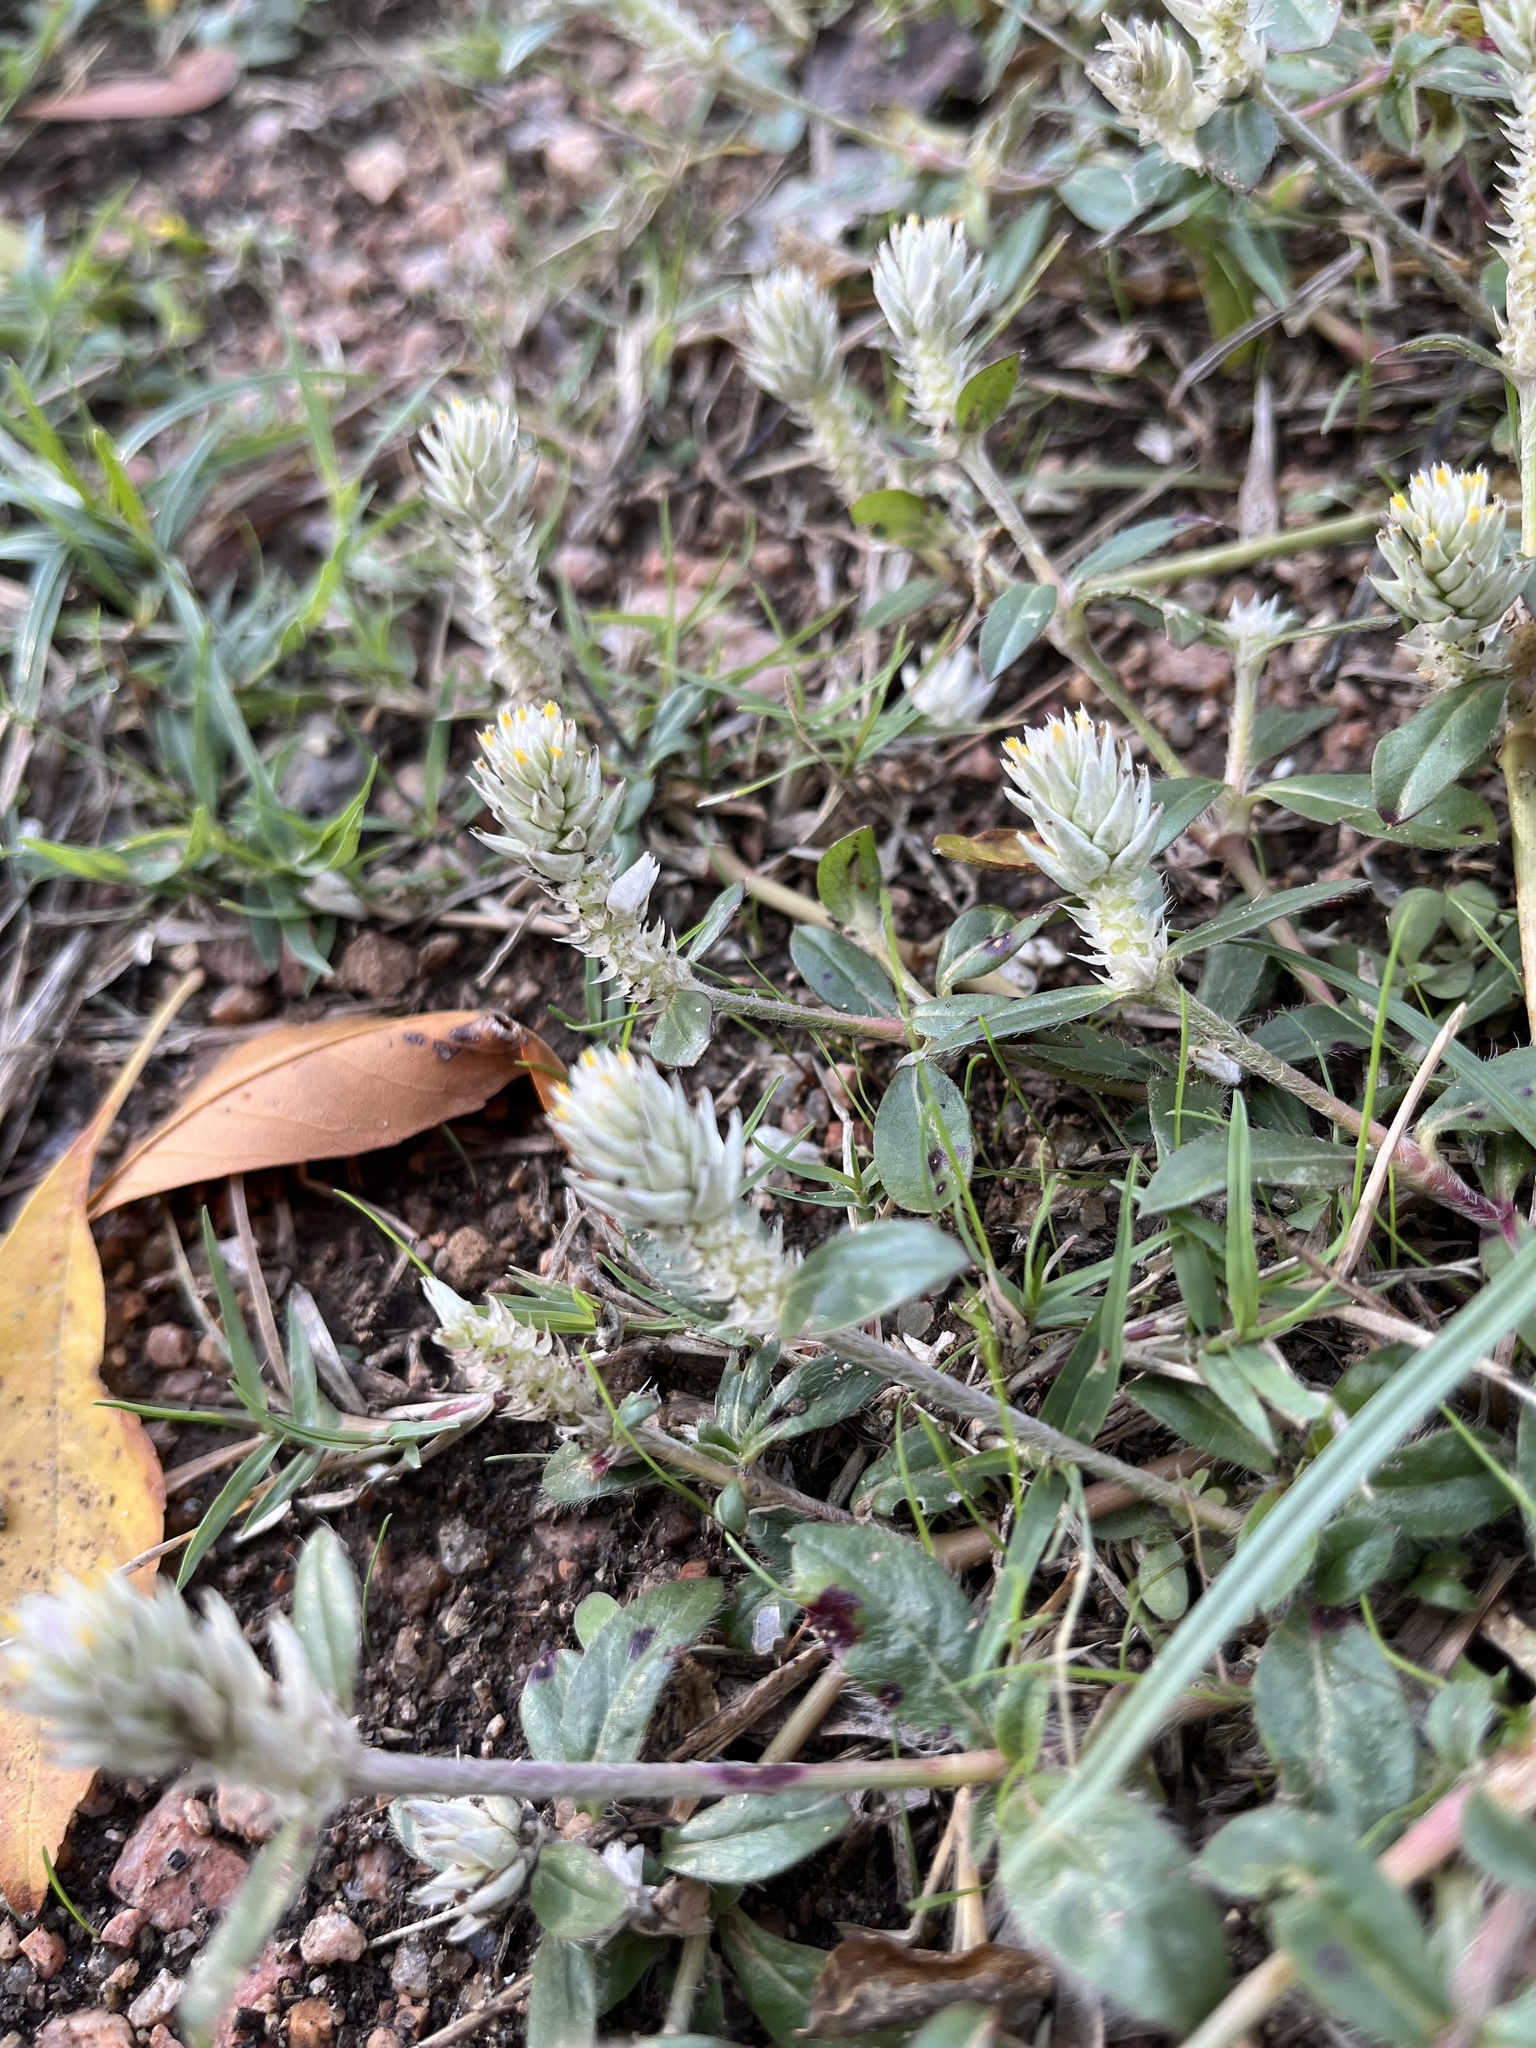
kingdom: Plantae
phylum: Tracheophyta
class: Magnoliopsida
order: Caryophyllales
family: Amaranthaceae
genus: Gomphrena
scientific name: Gomphrena serrata
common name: Arrasa con todo
